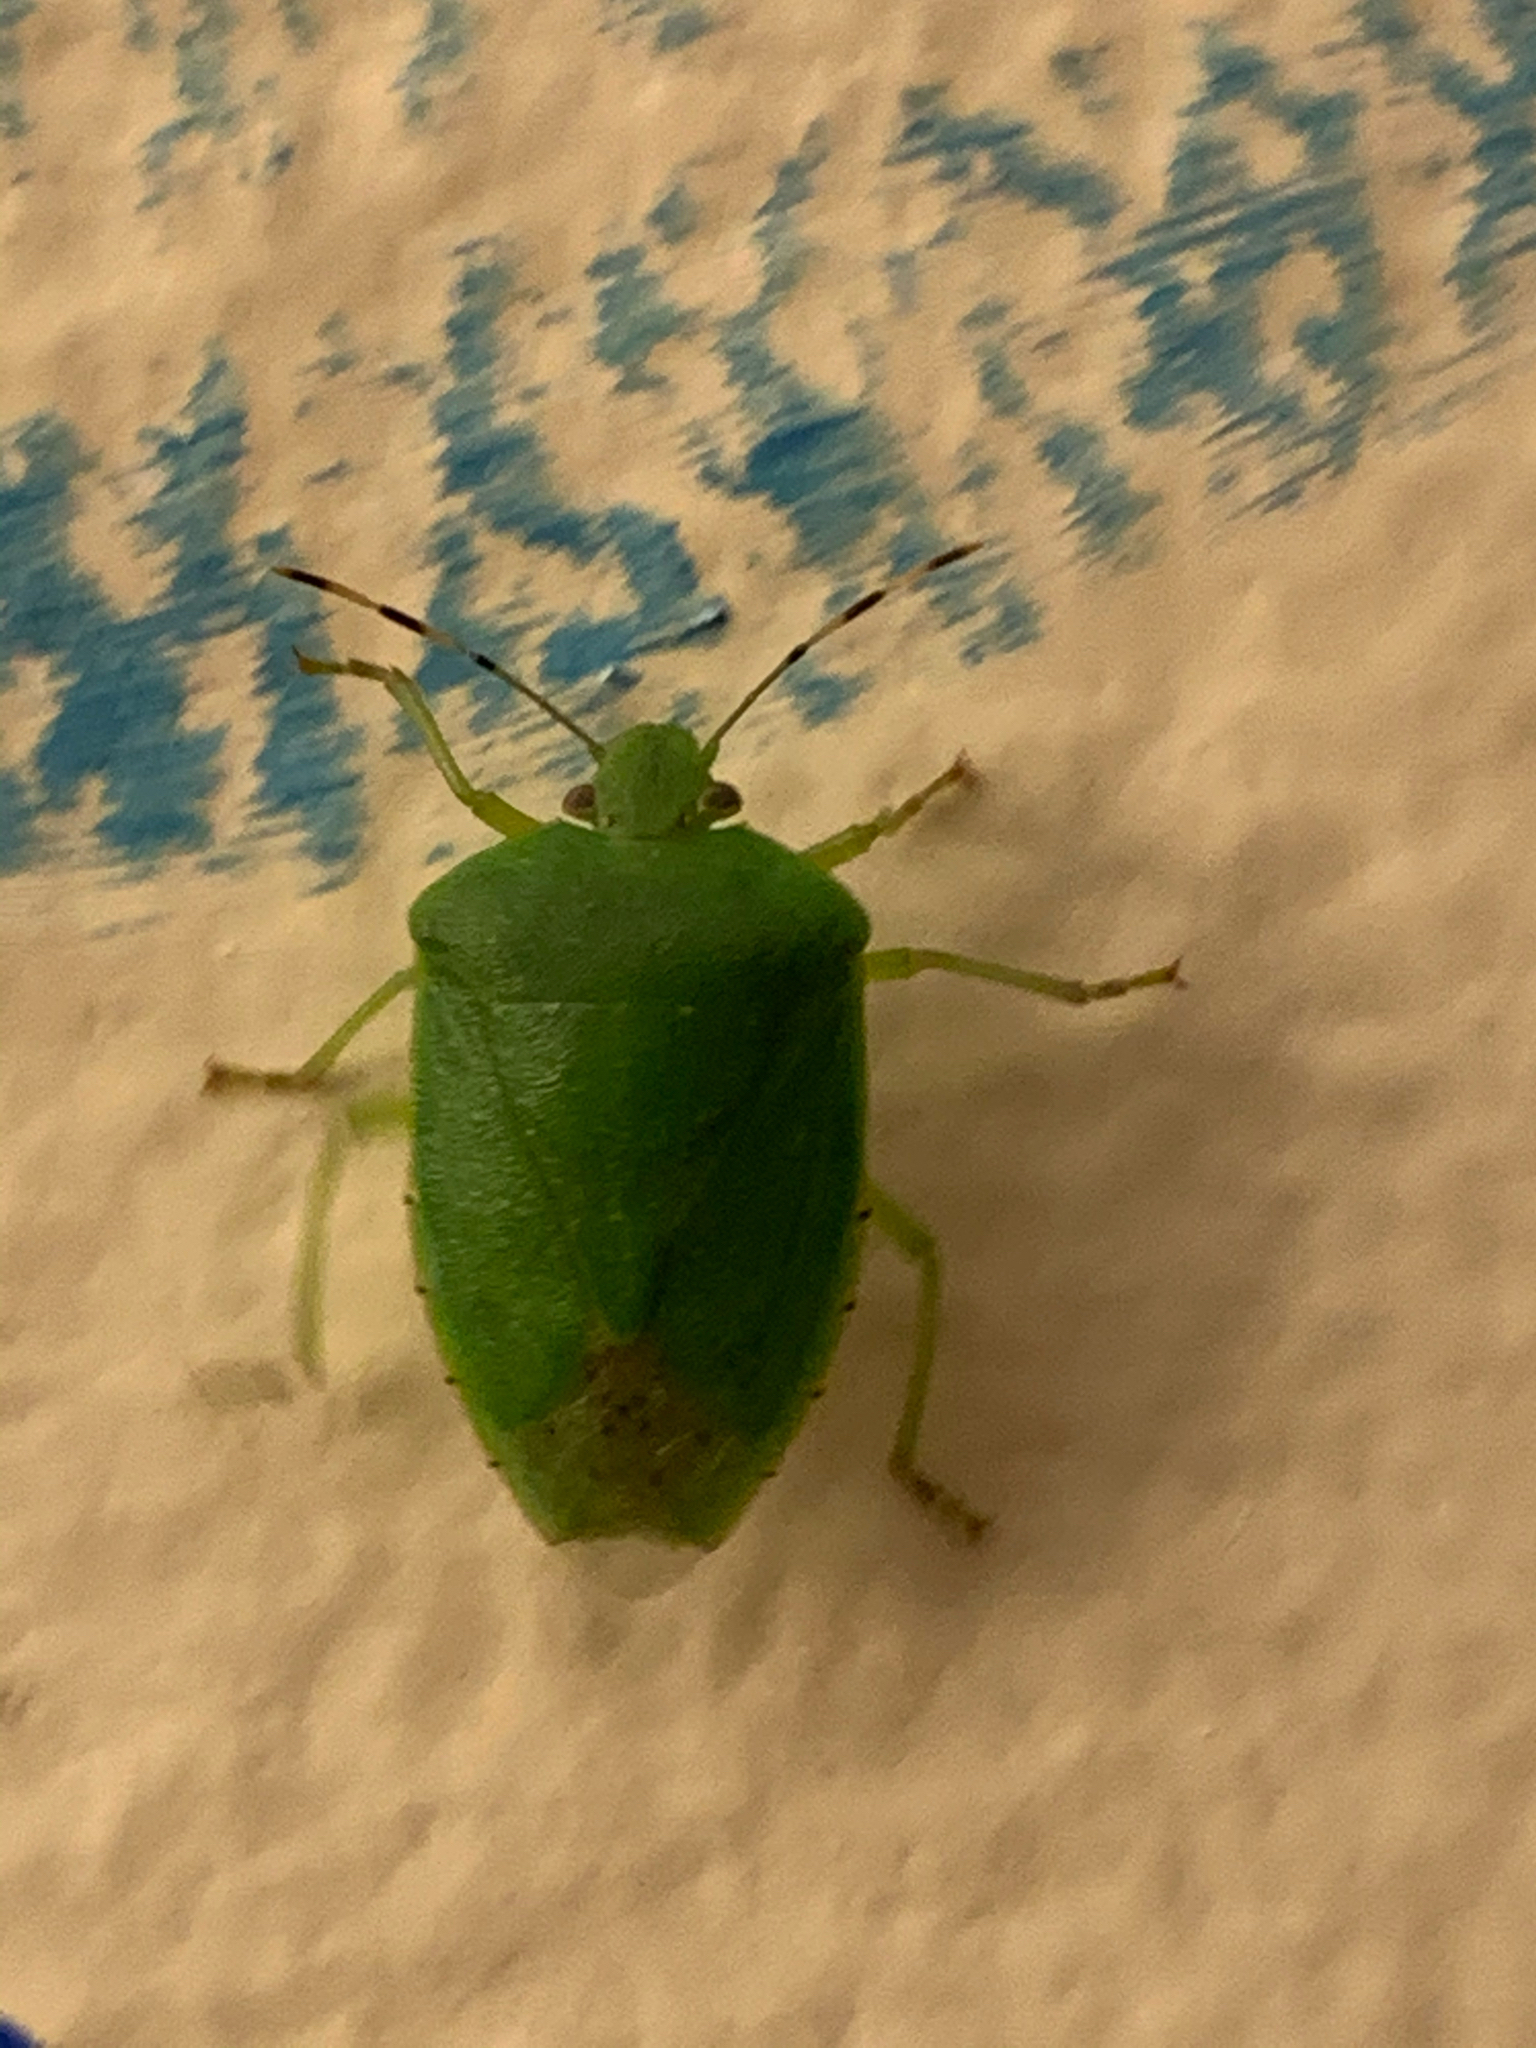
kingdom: Animalia
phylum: Arthropoda
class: Insecta
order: Hemiptera
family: Pentatomidae
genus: Chinavia
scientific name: Chinavia hilaris
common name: Green stink bug
